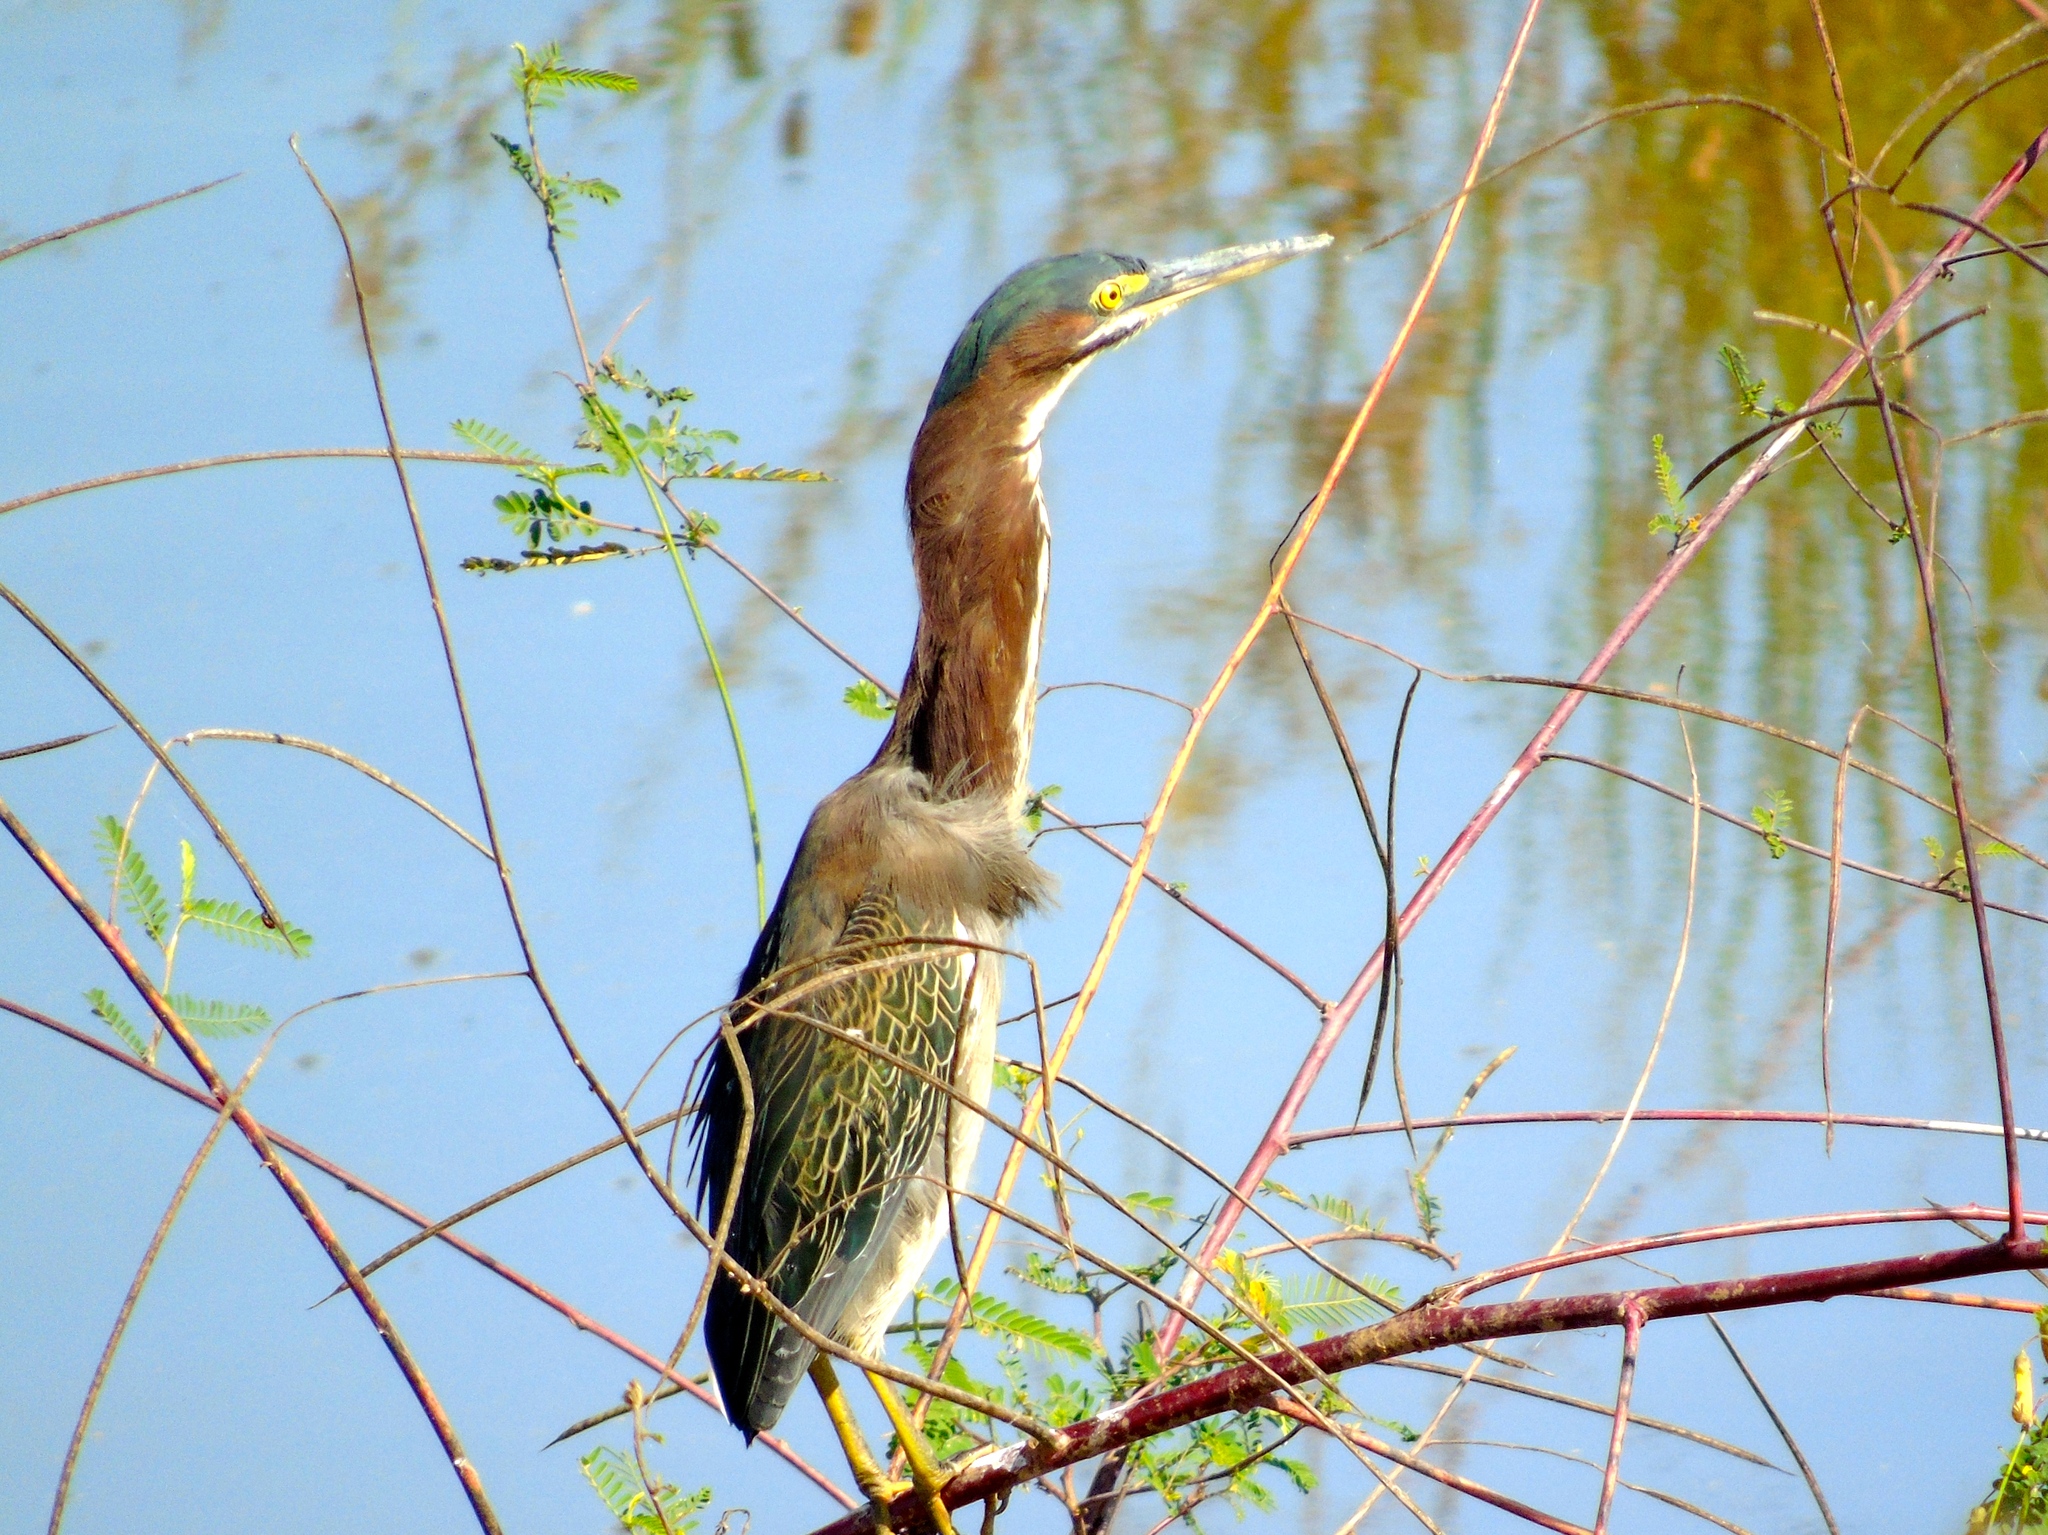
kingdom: Animalia
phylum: Chordata
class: Aves
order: Pelecaniformes
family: Ardeidae
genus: Butorides
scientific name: Butorides virescens
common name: Green heron
